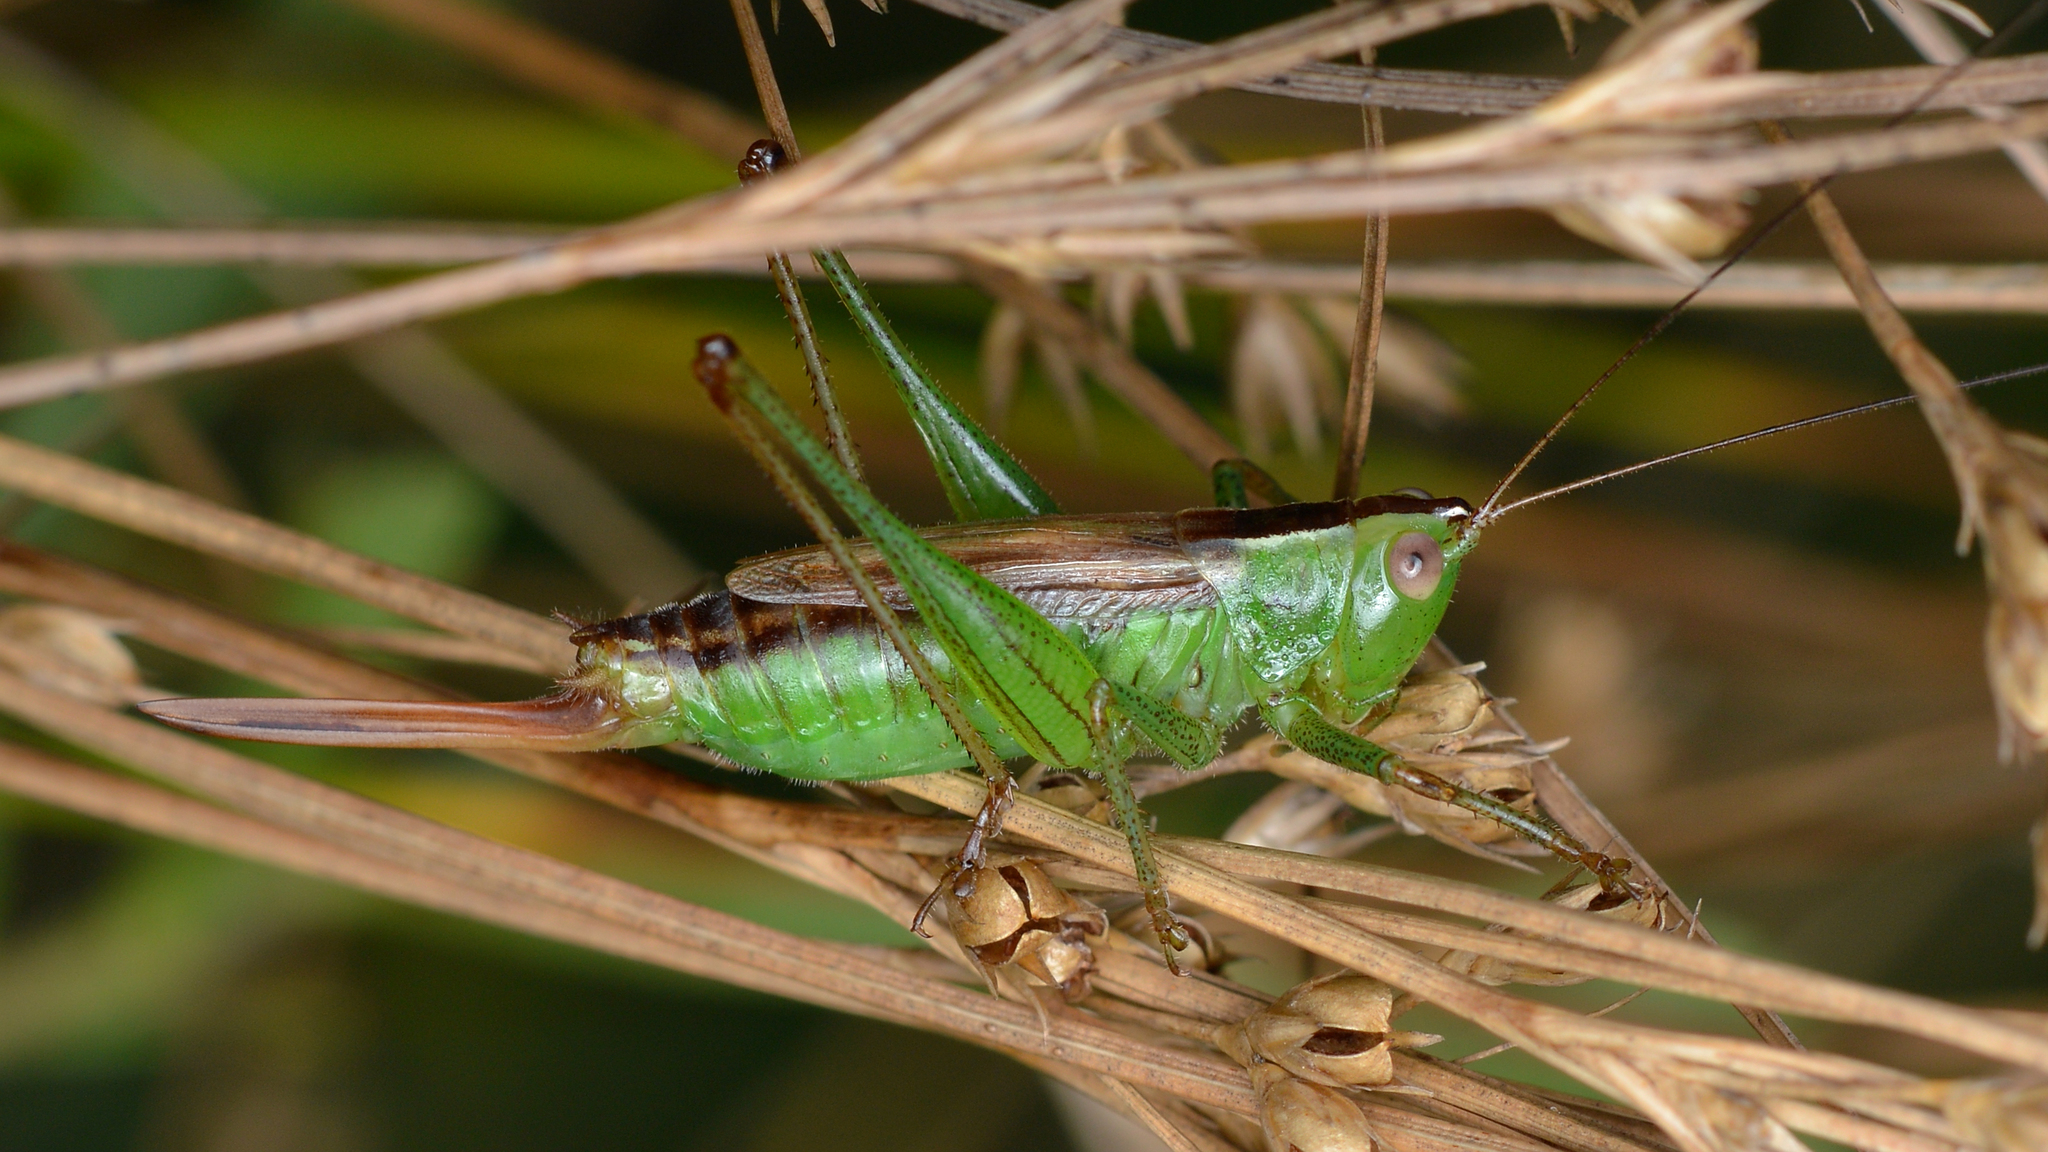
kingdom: Animalia
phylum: Arthropoda
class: Insecta
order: Orthoptera
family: Tettigoniidae
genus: Conocephalus
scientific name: Conocephalus brevipennis
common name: Short-winged meadow katydid
